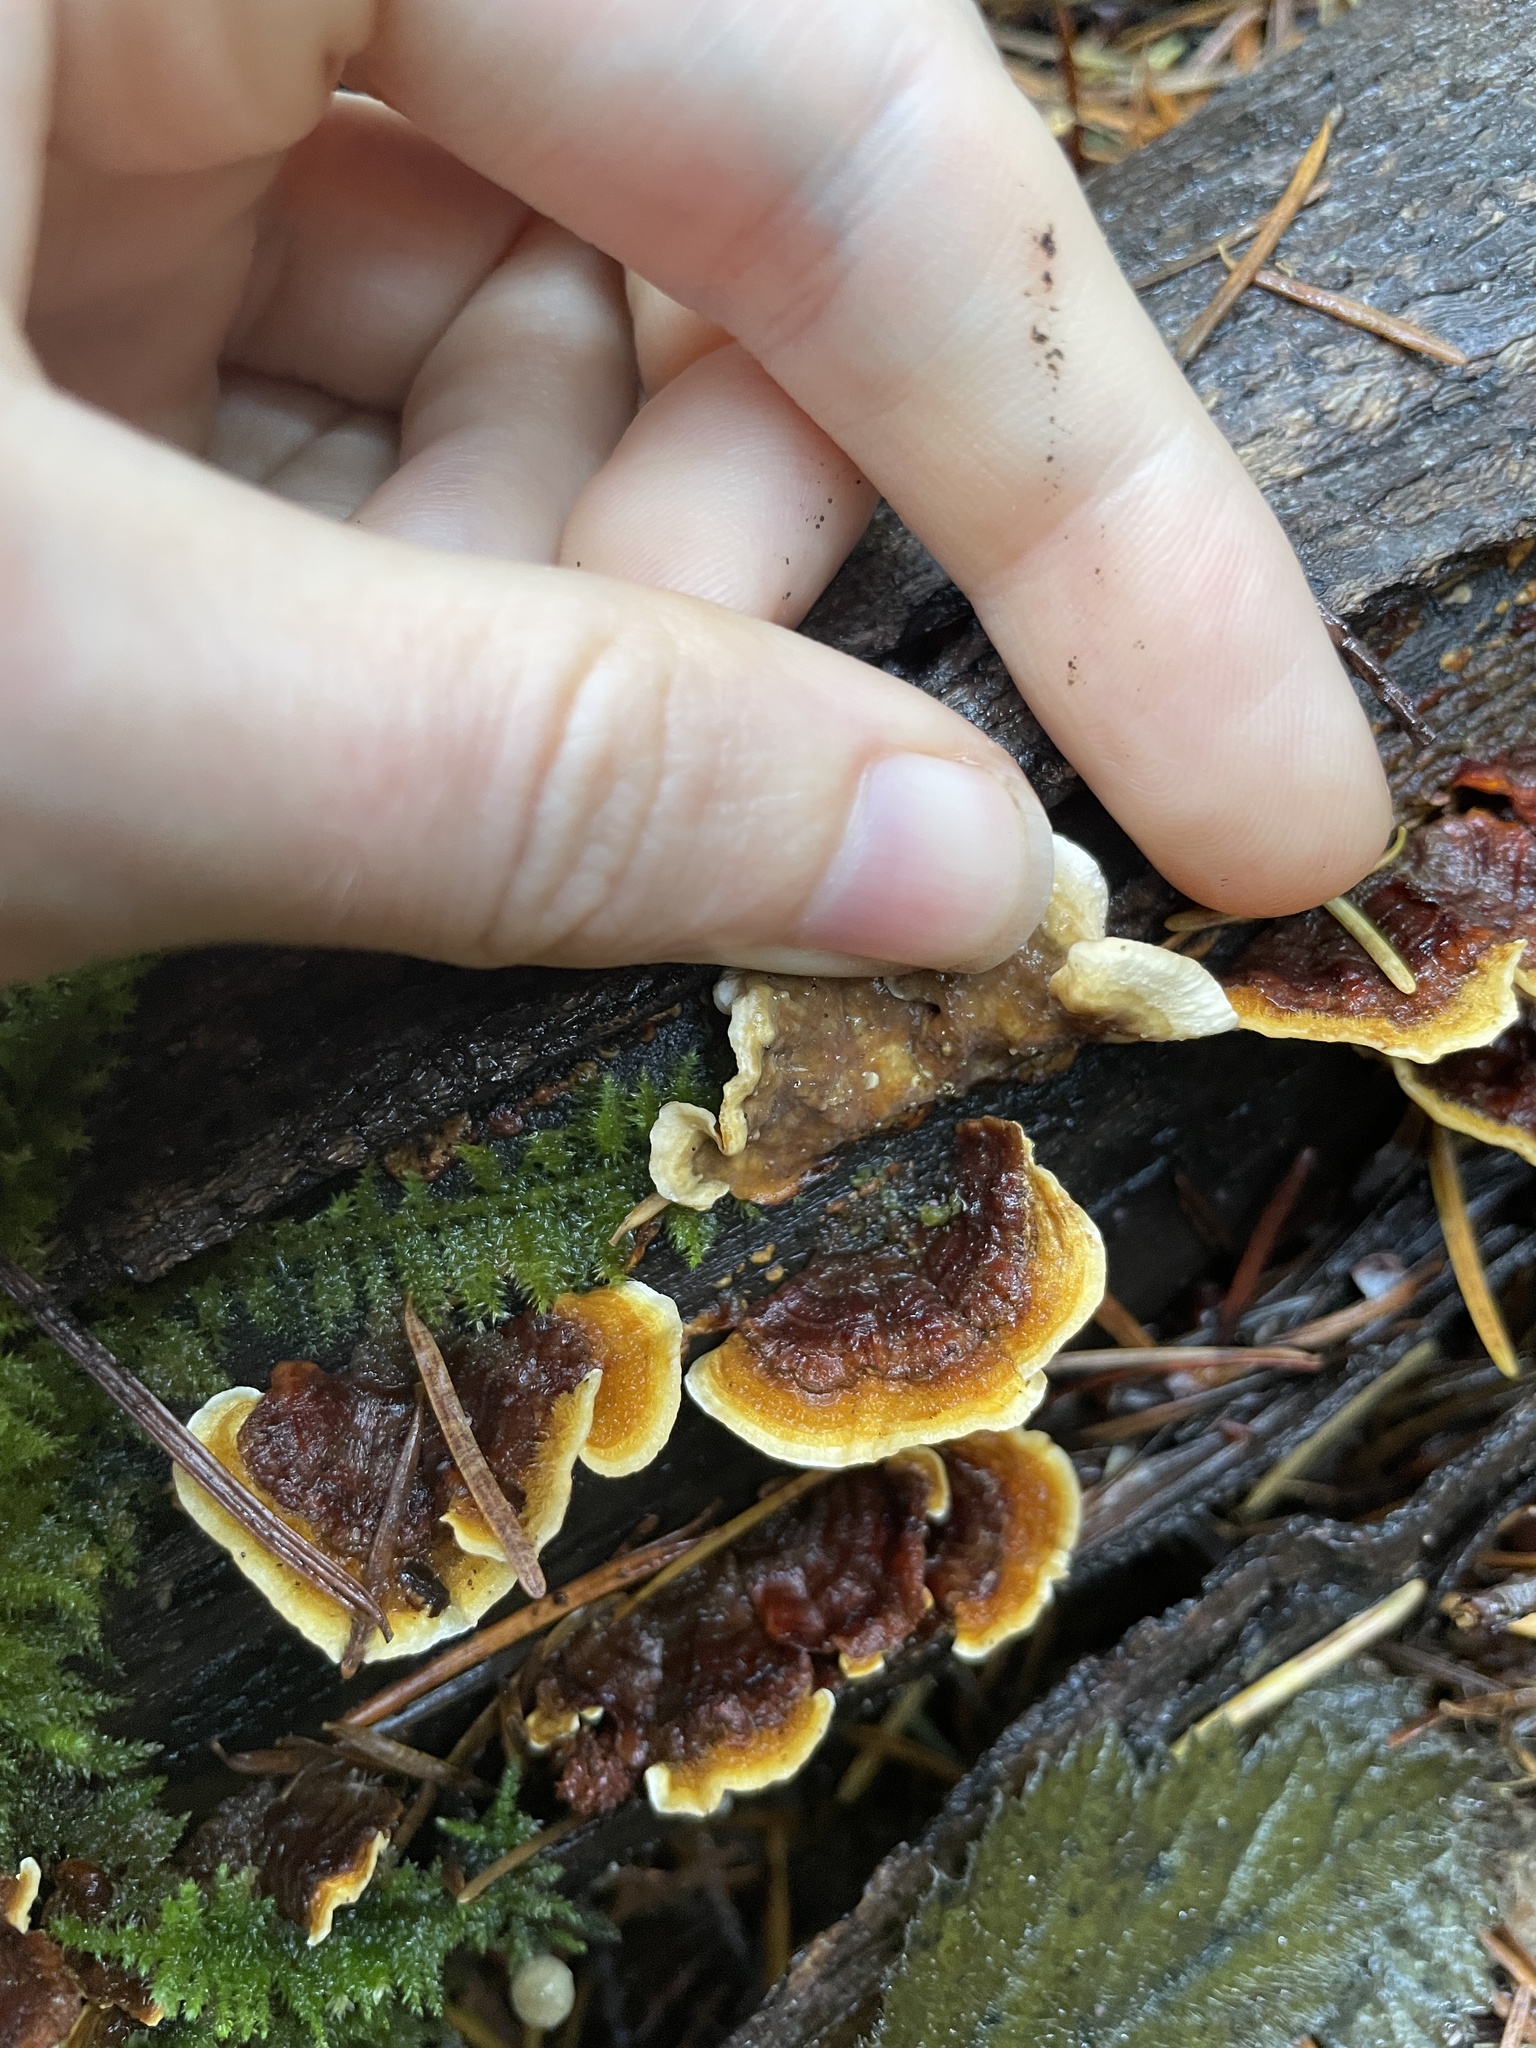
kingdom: Fungi
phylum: Basidiomycota
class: Agaricomycetes
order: Russulales
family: Stereaceae
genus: Stereum
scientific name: Stereum hirsutum
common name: Hairy curtain crust
